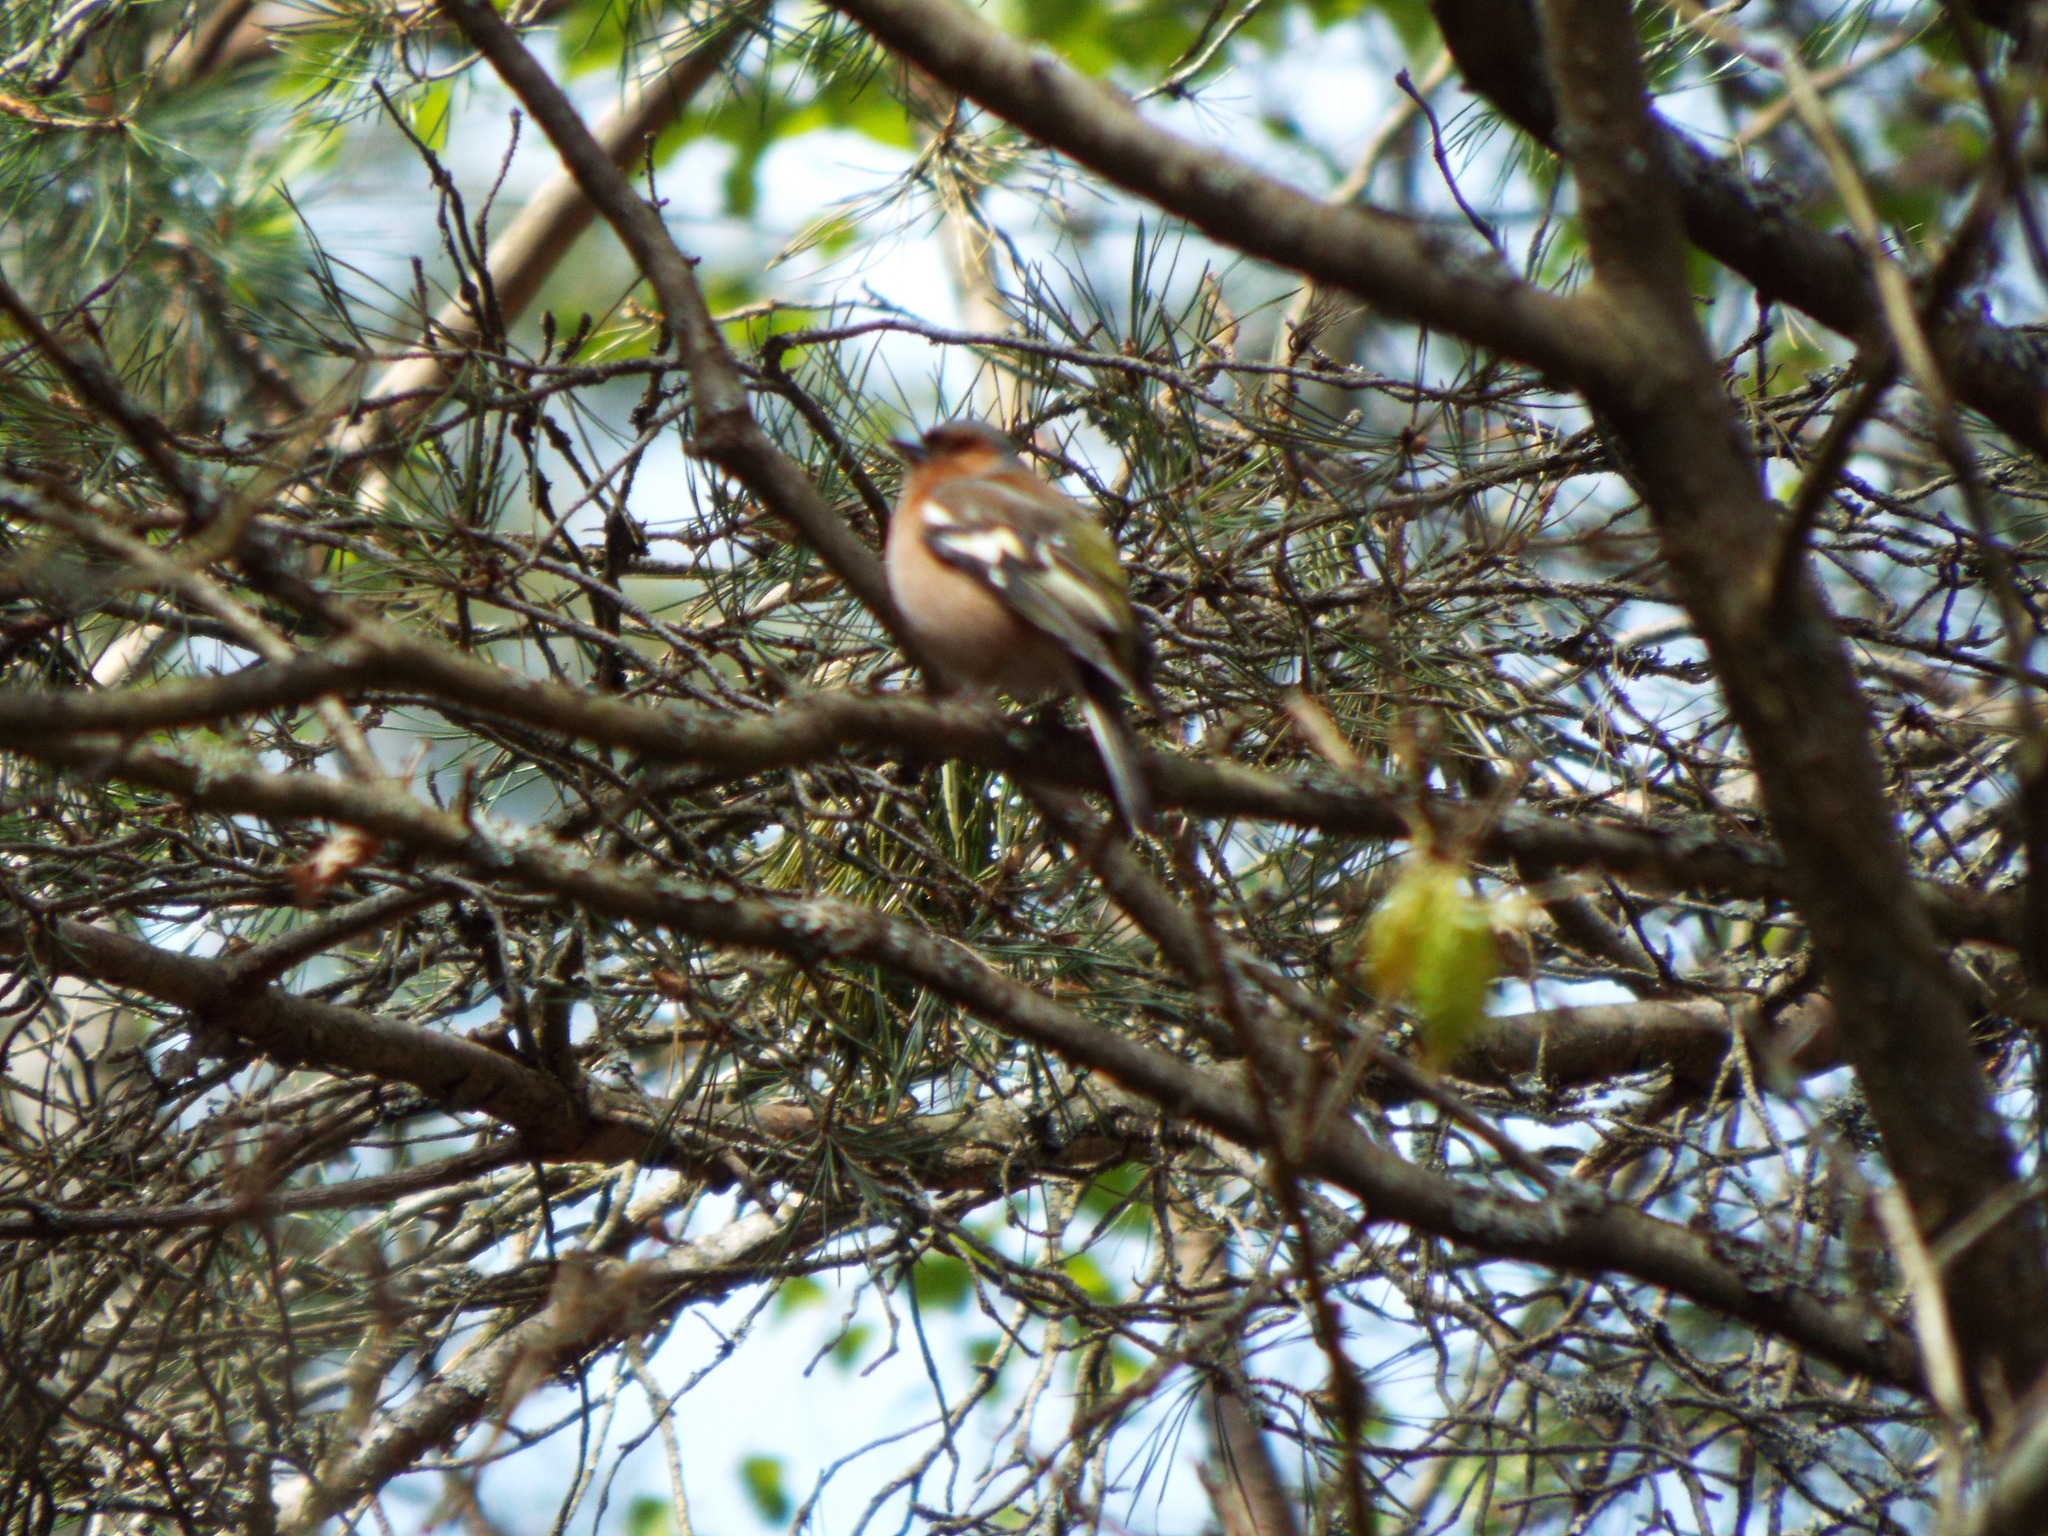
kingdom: Animalia
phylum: Chordata
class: Aves
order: Passeriformes
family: Fringillidae
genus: Fringilla
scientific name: Fringilla coelebs
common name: Common chaffinch
